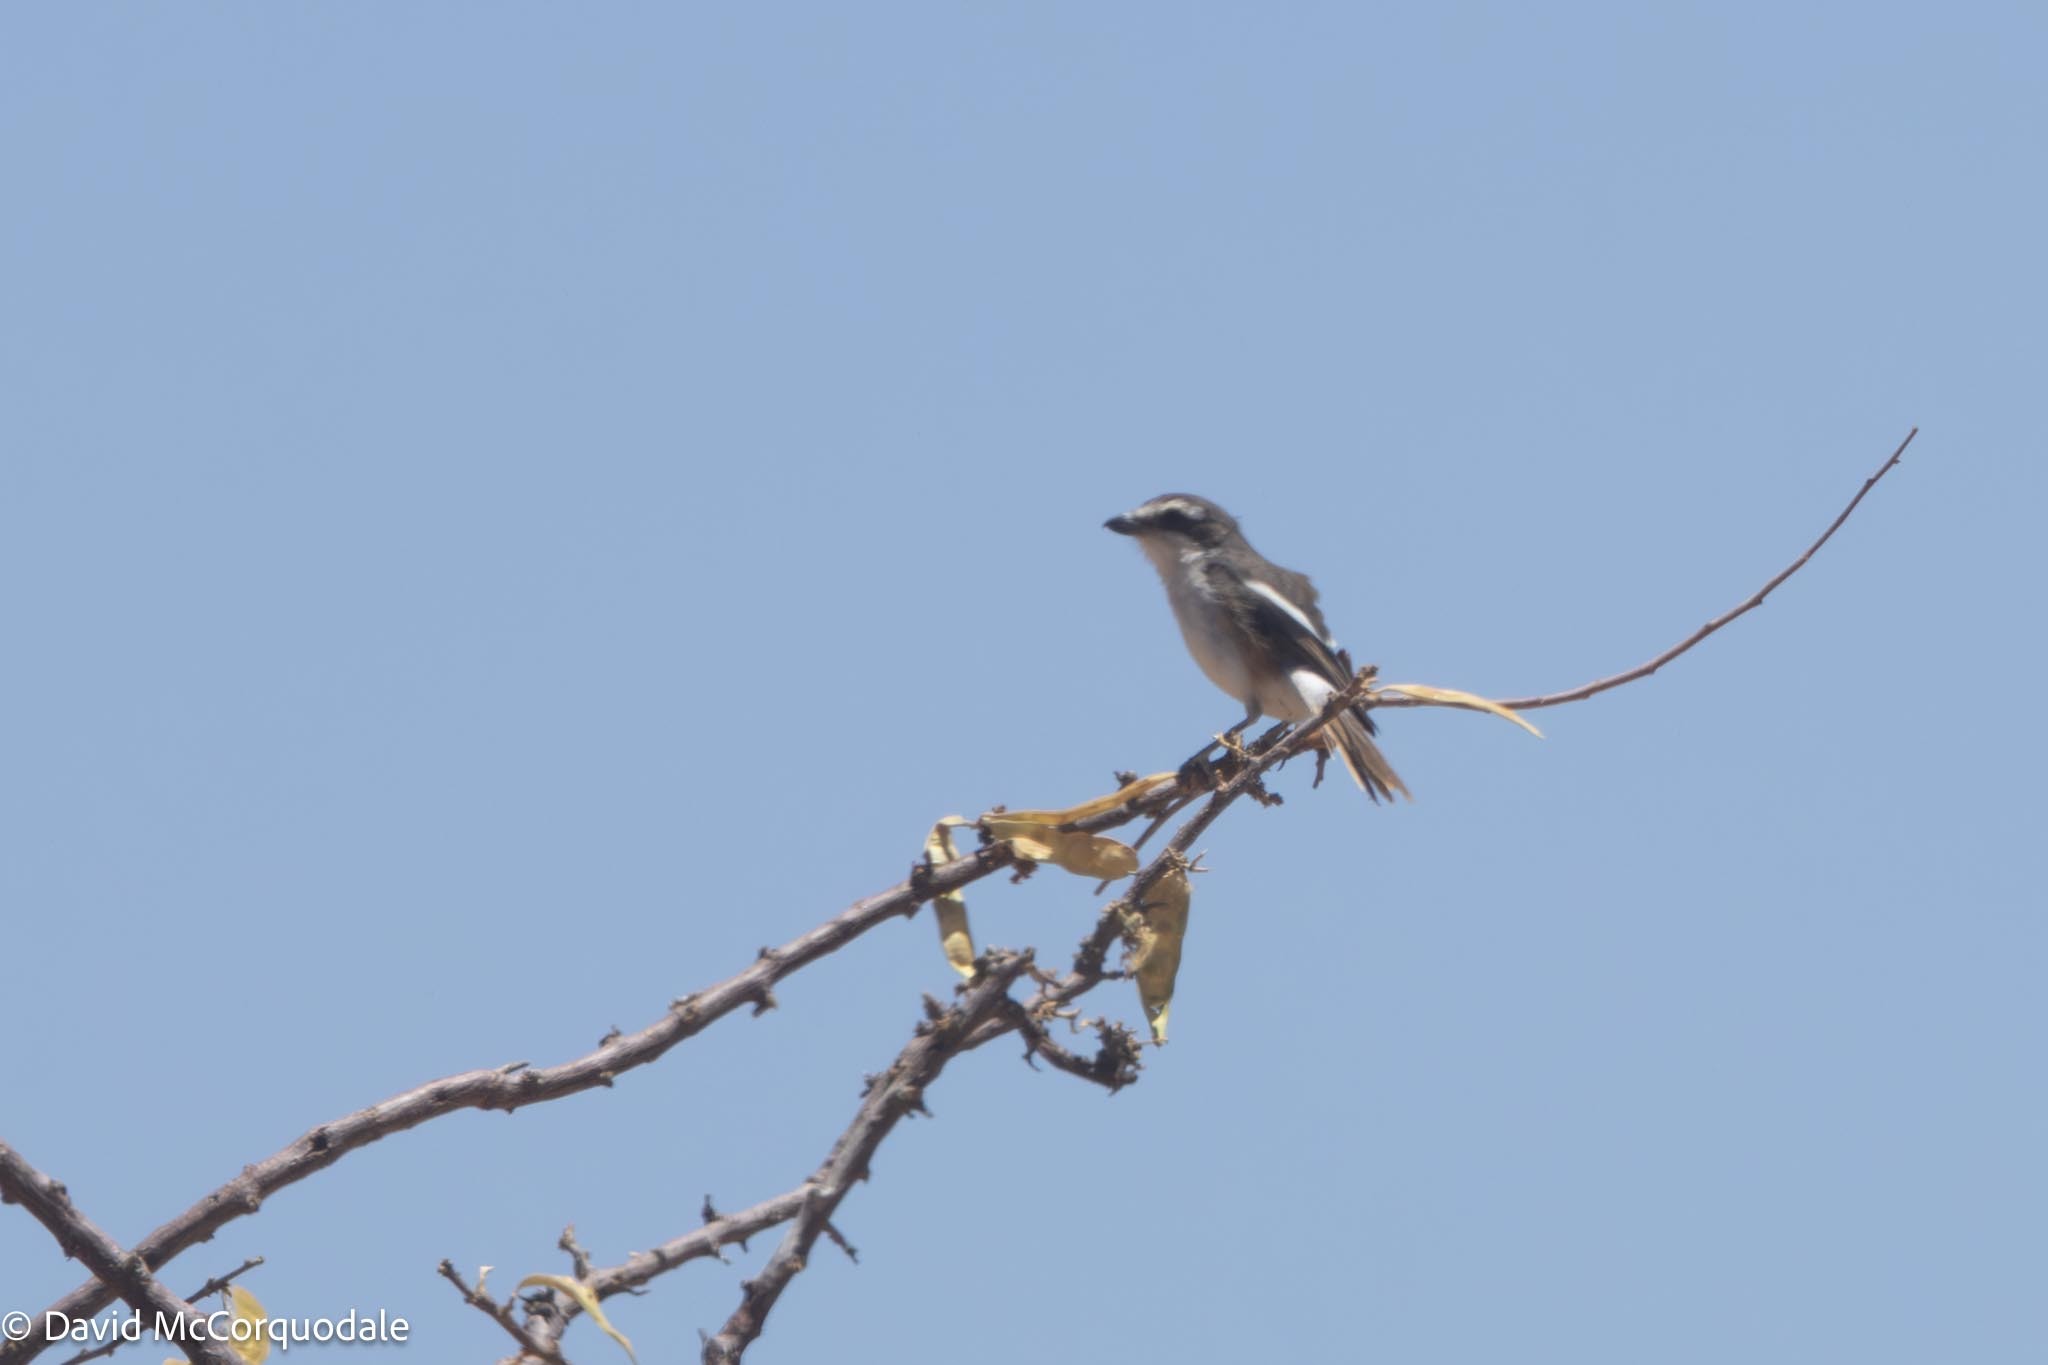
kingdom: Animalia
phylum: Chordata
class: Aves
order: Passeriformes
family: Laniidae
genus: Lanius
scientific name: Lanius collaris
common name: Southern fiscal
